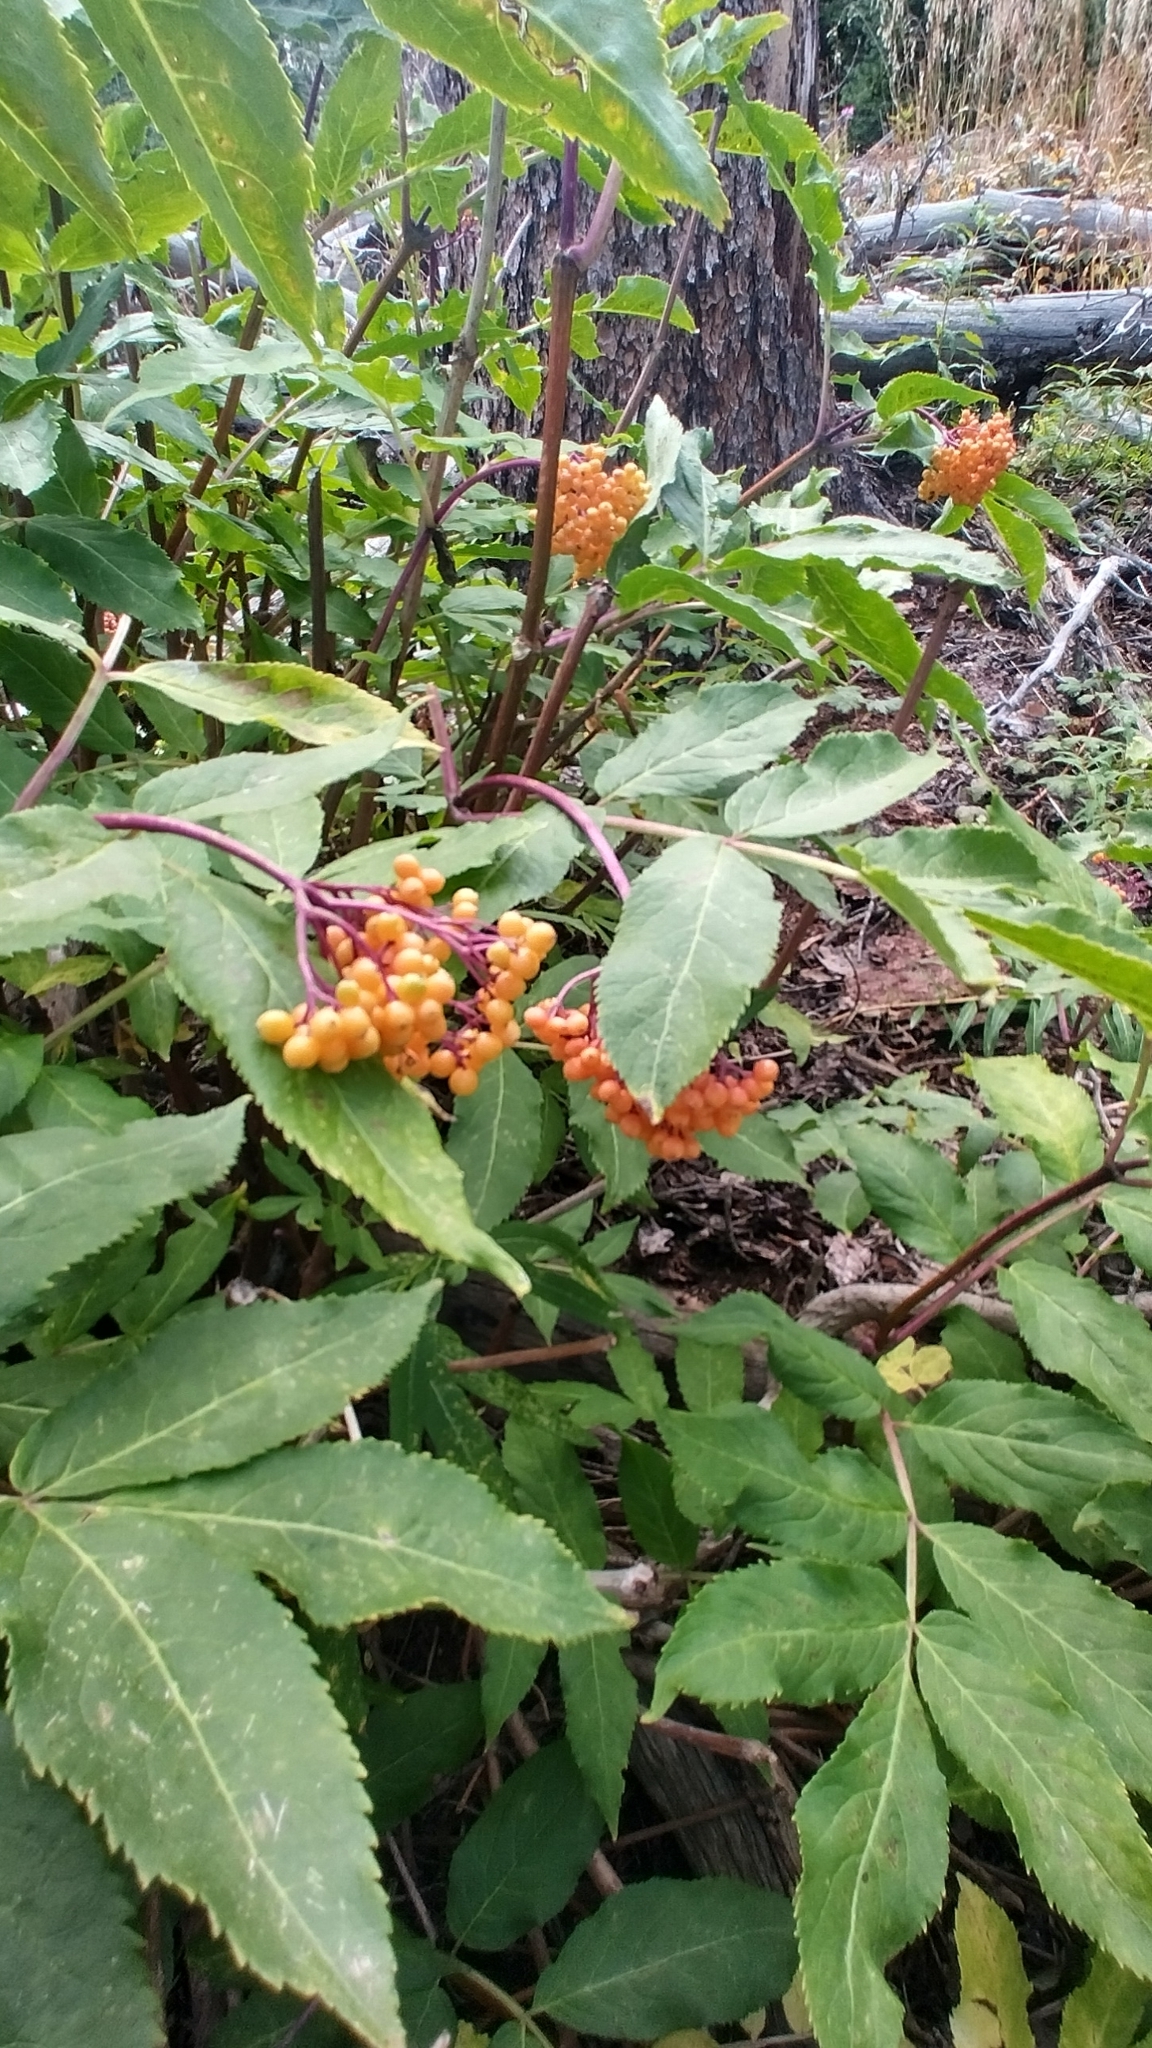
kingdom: Plantae
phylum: Tracheophyta
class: Magnoliopsida
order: Rosales
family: Rosaceae
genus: Sorbus
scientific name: Sorbus scopulina
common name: Greene's mountain-ash
